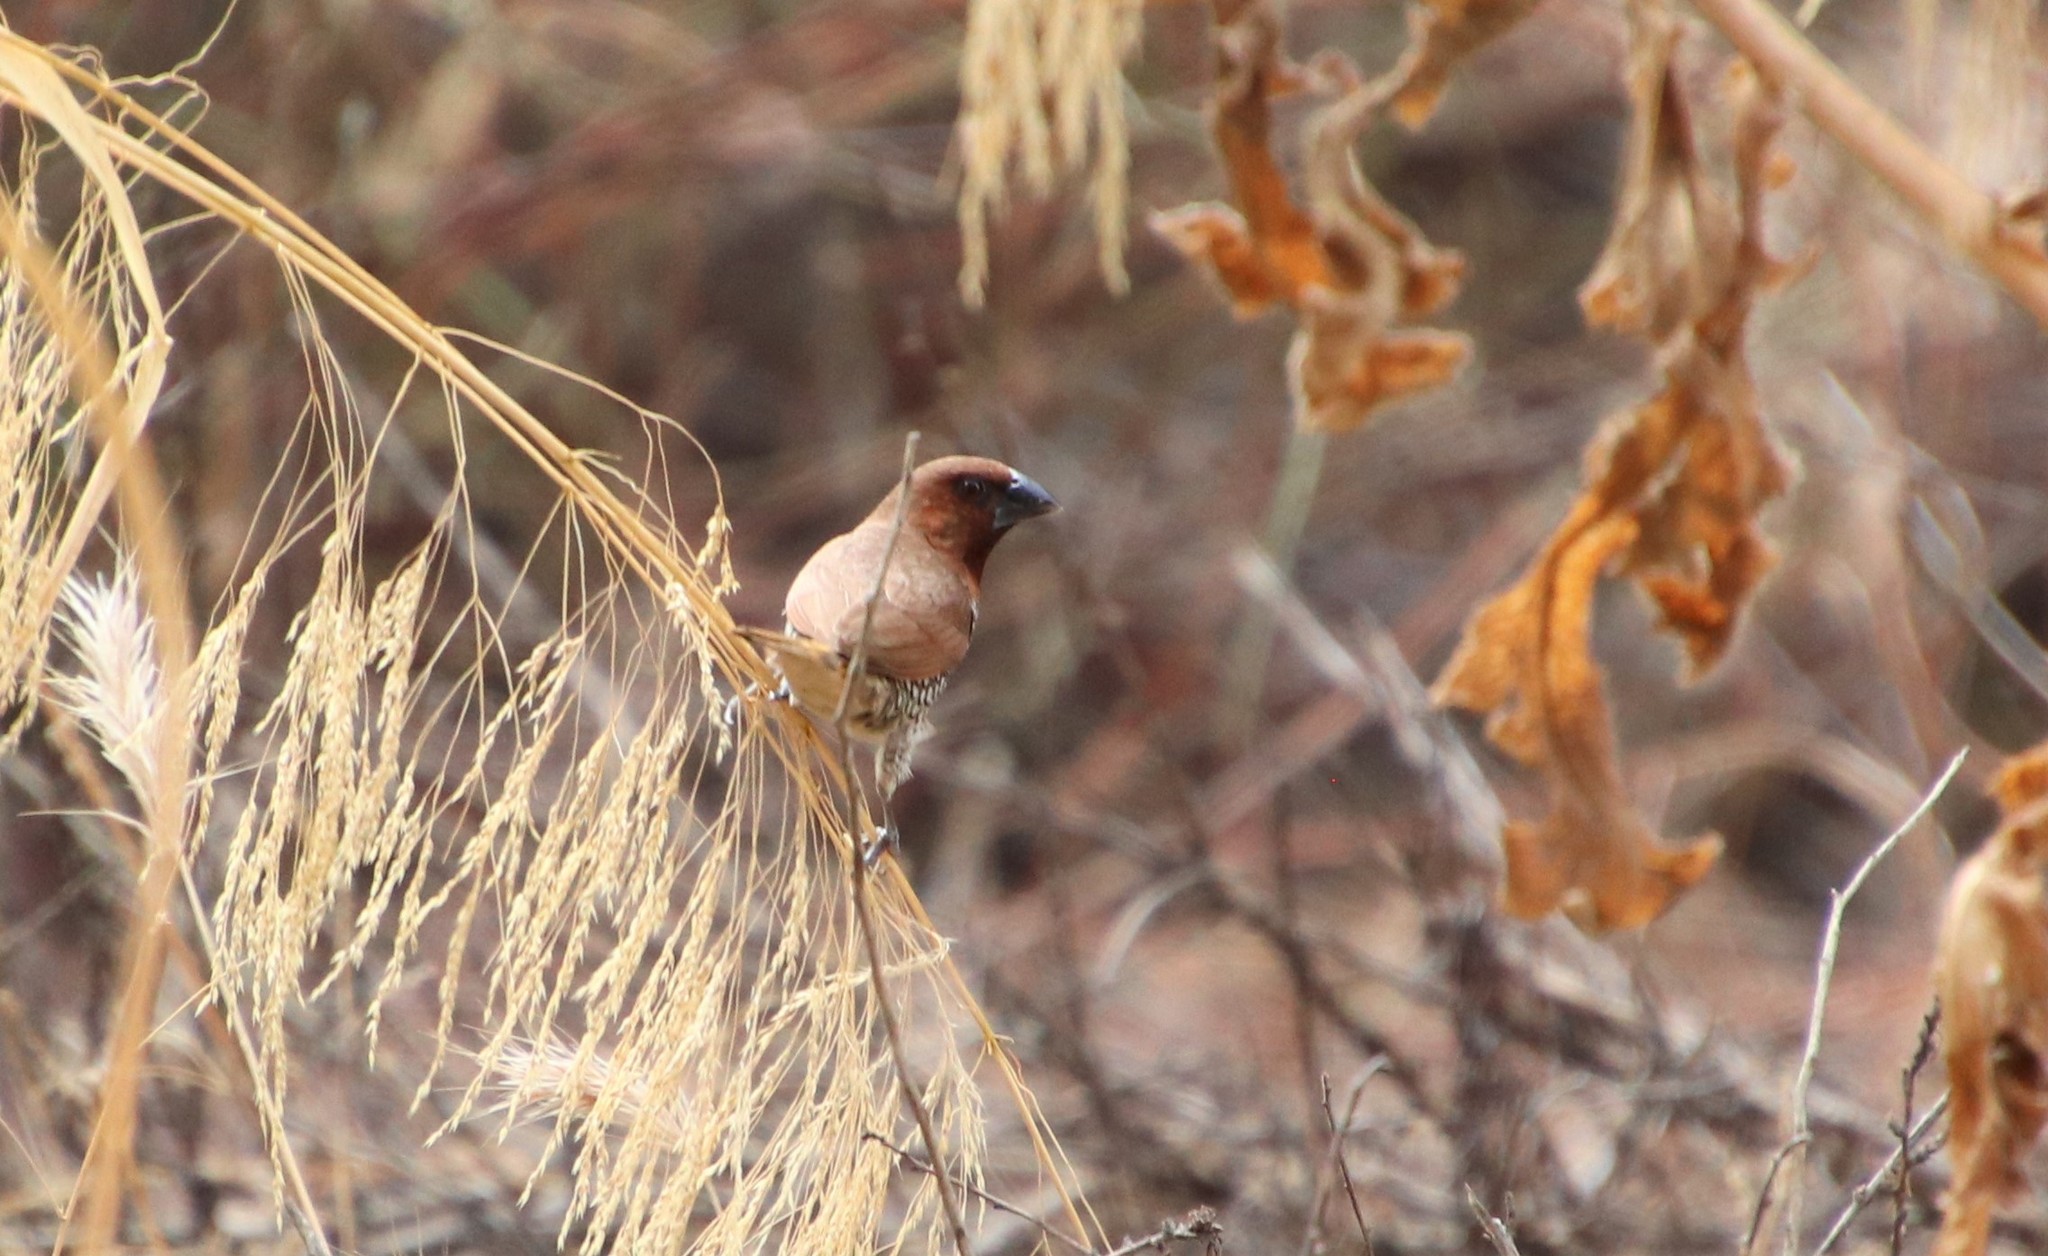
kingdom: Animalia
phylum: Chordata
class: Aves
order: Passeriformes
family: Estrildidae
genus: Lonchura
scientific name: Lonchura punctulata
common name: Scaly-breasted munia
